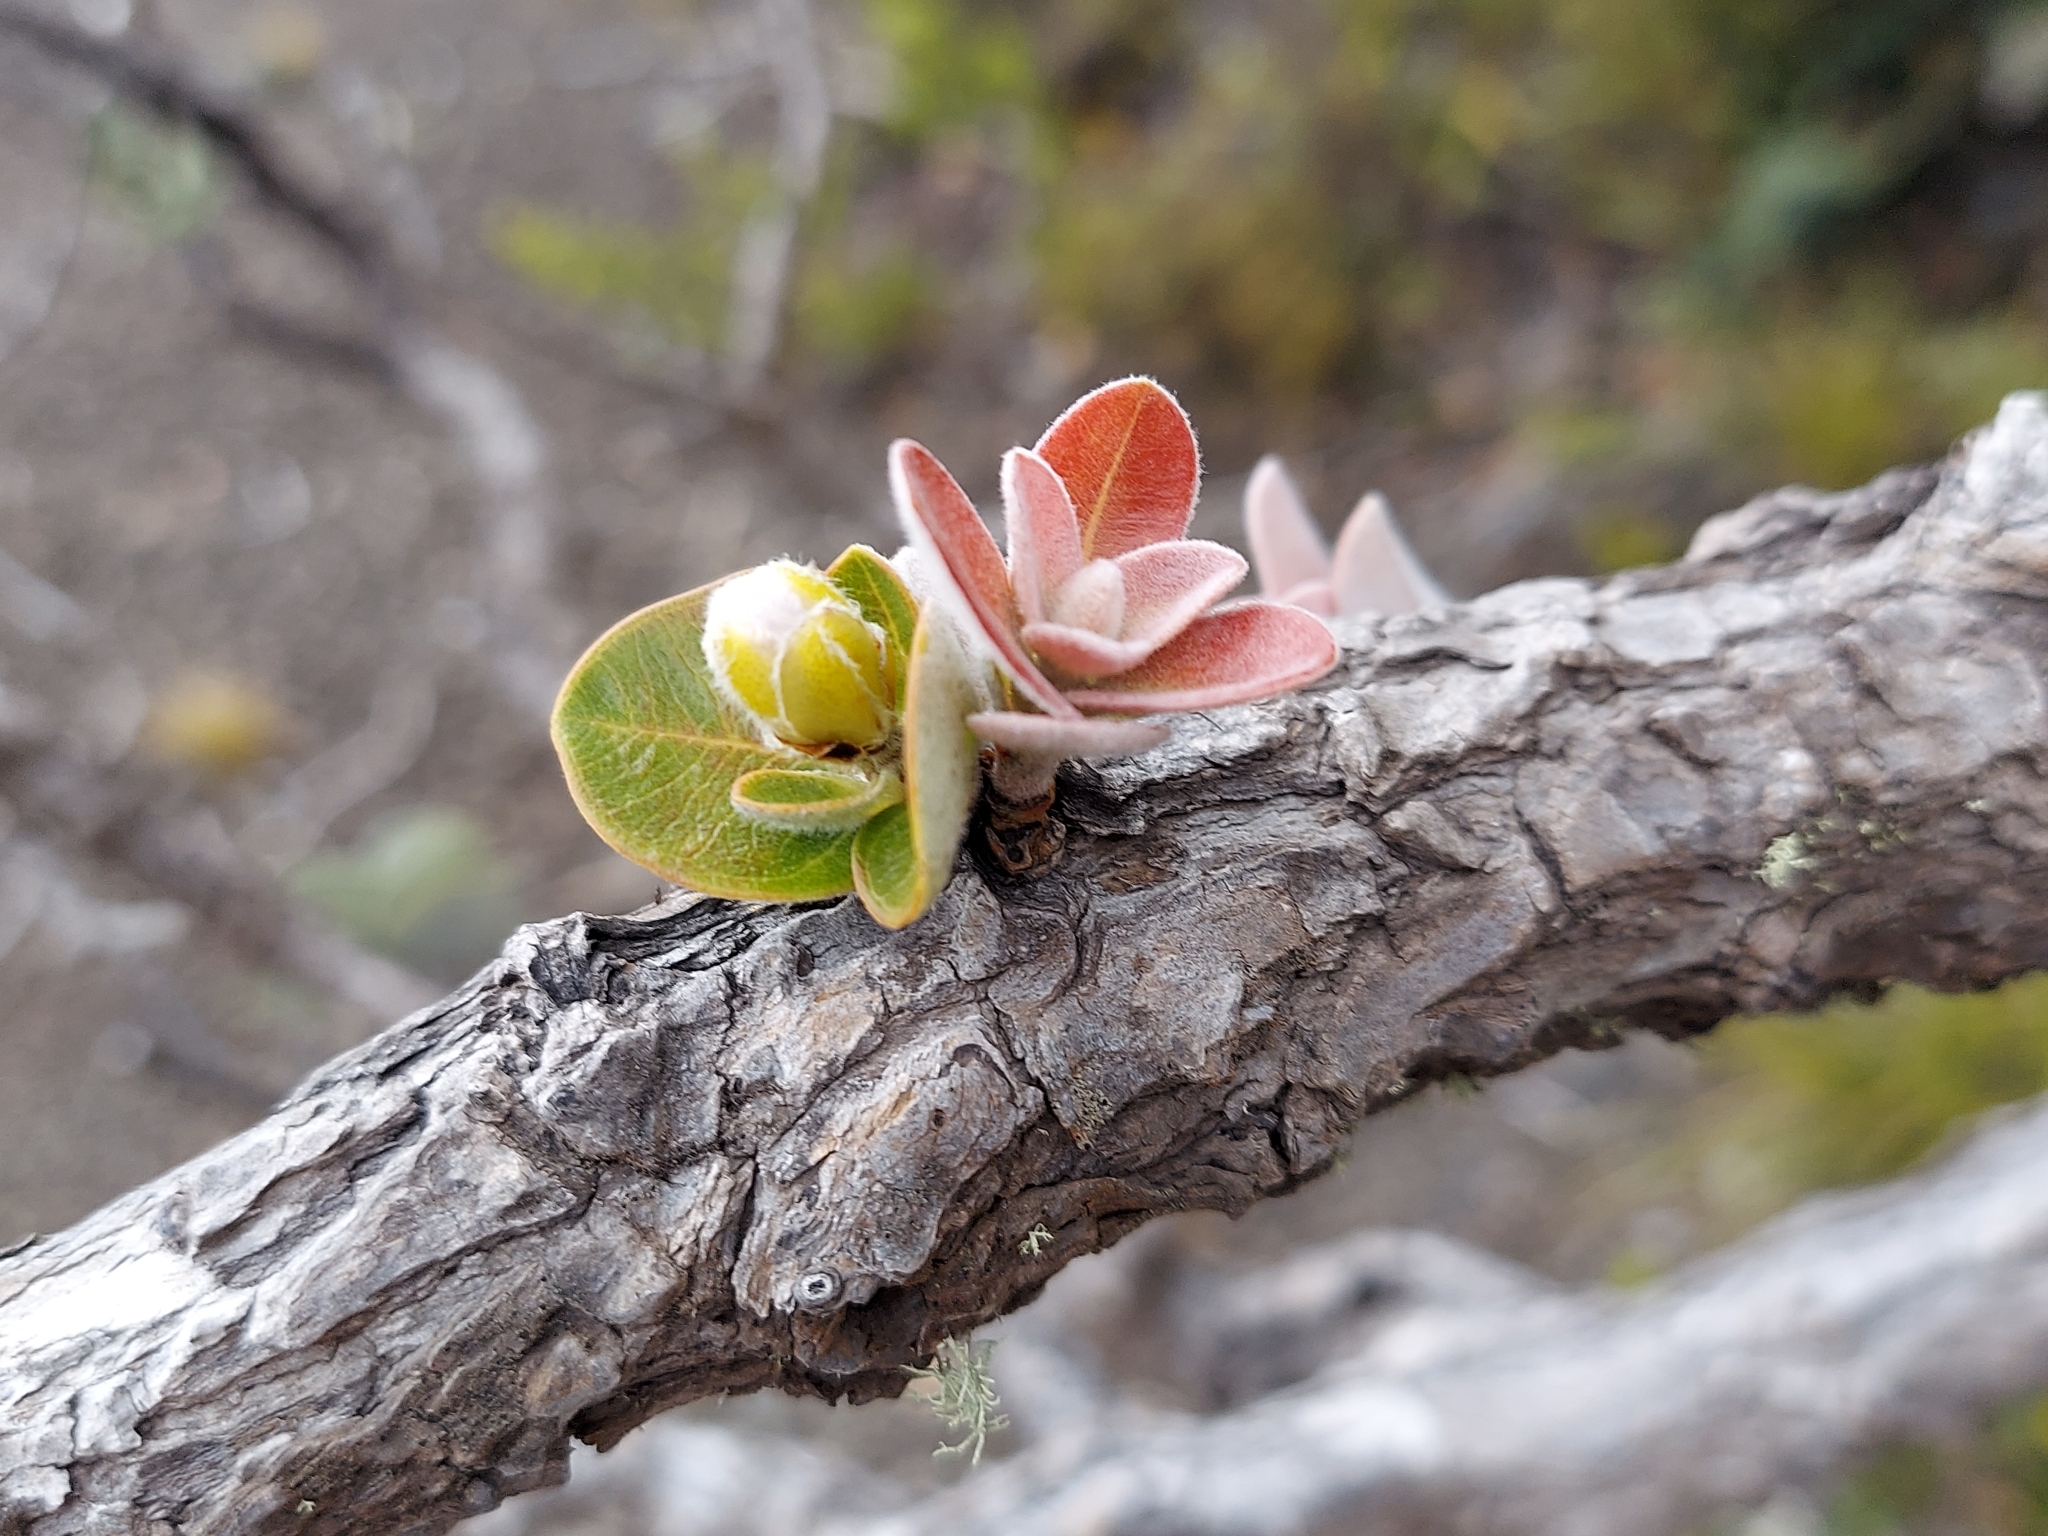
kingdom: Plantae
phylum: Tracheophyta
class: Magnoliopsida
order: Myrtales
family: Myrtaceae
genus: Metrosideros
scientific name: Metrosideros polymorpha
